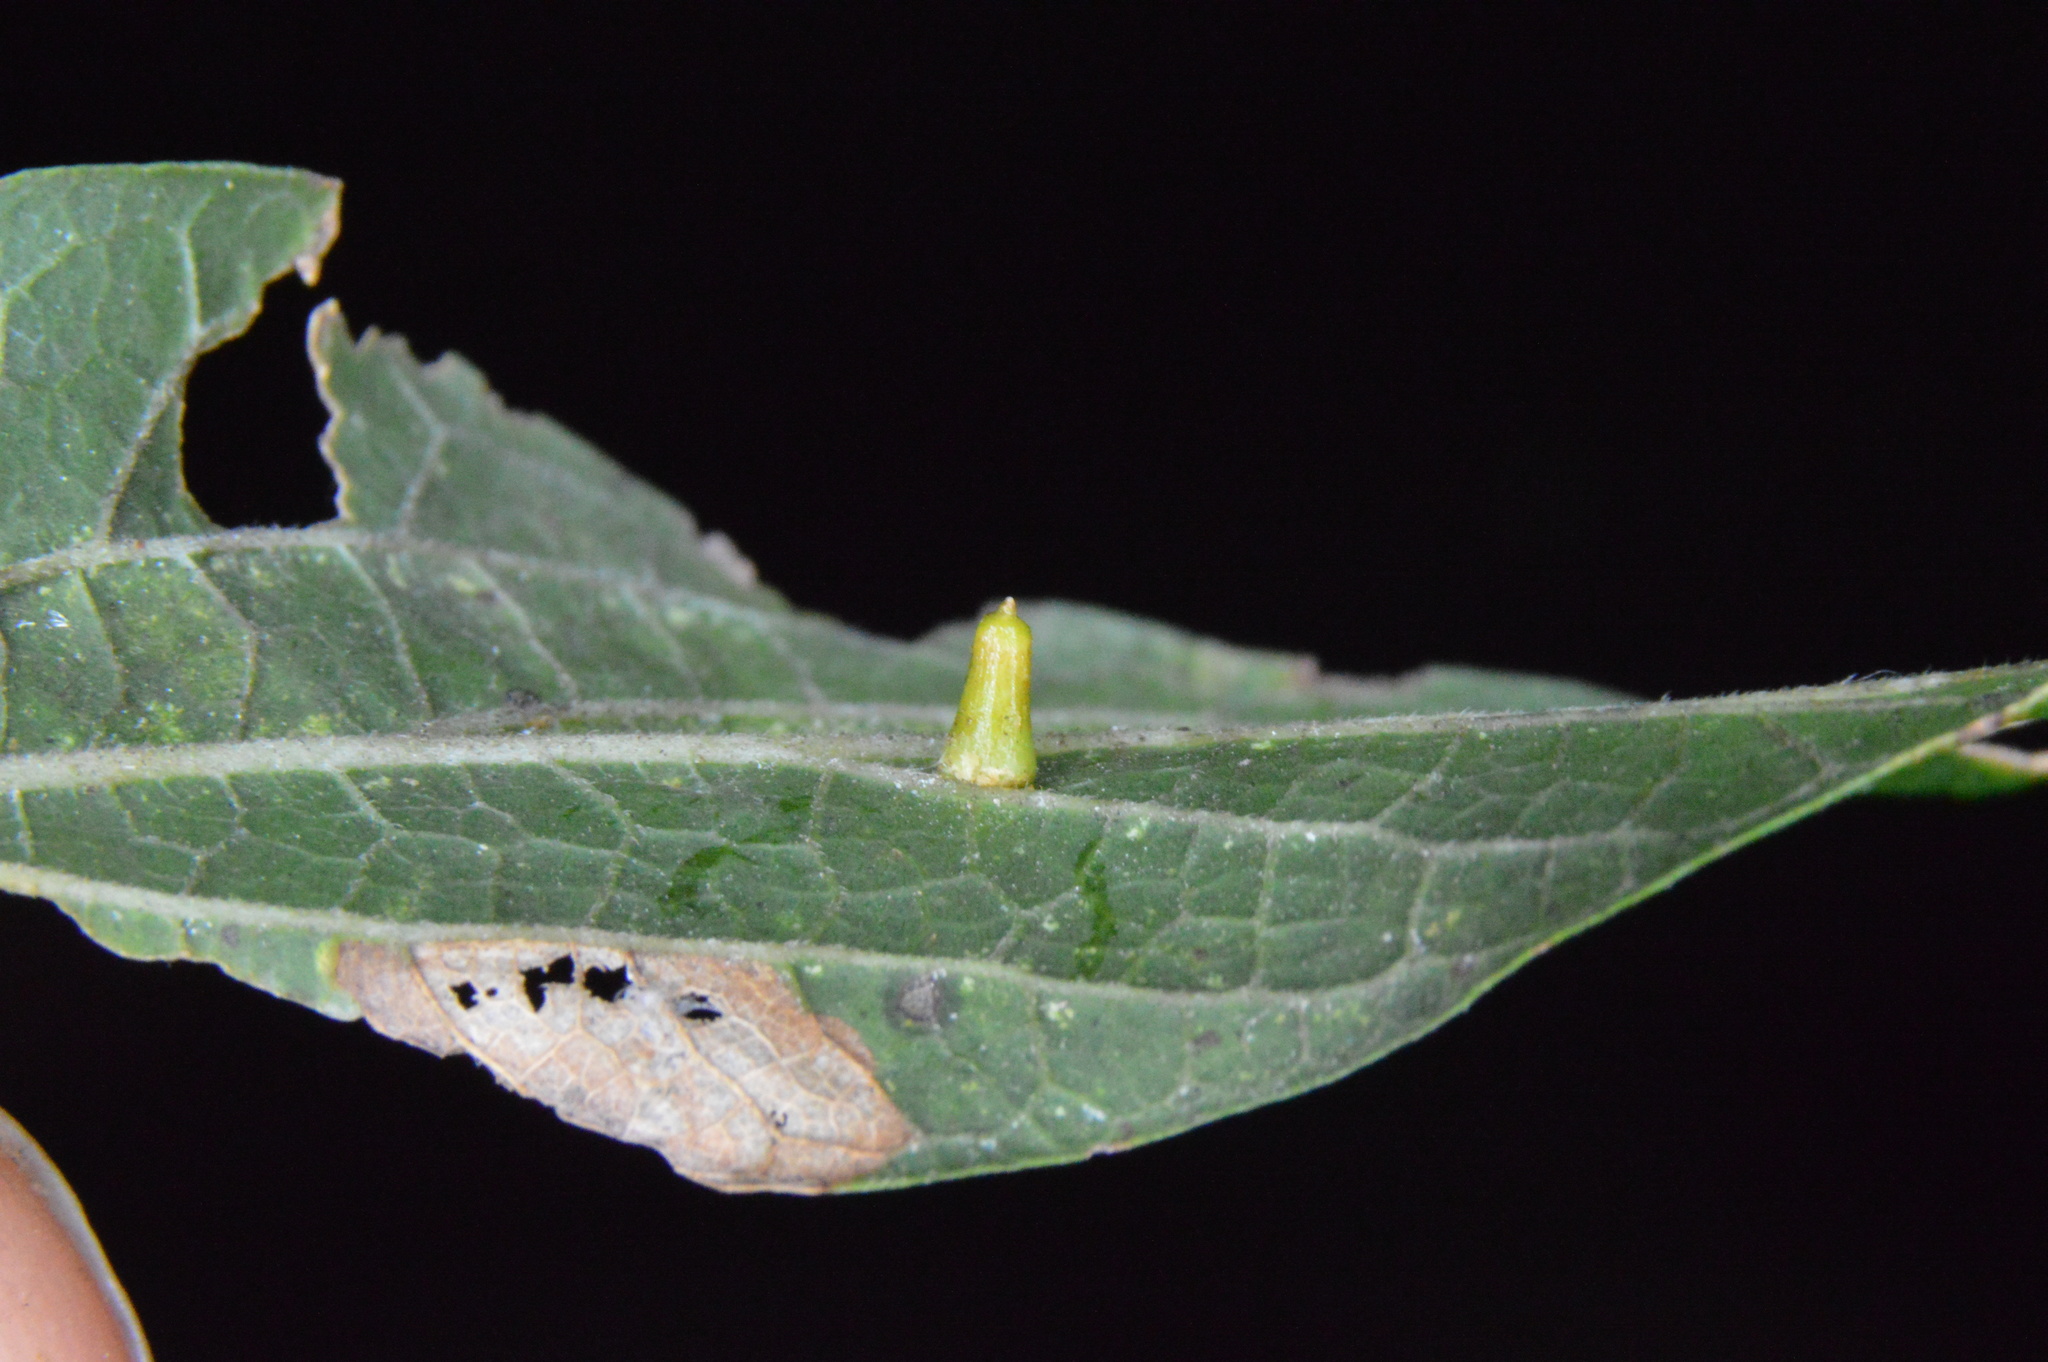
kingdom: Animalia
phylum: Arthropoda
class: Insecta
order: Diptera
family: Cecidomyiidae
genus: Celticecis
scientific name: Celticecis aciculata
